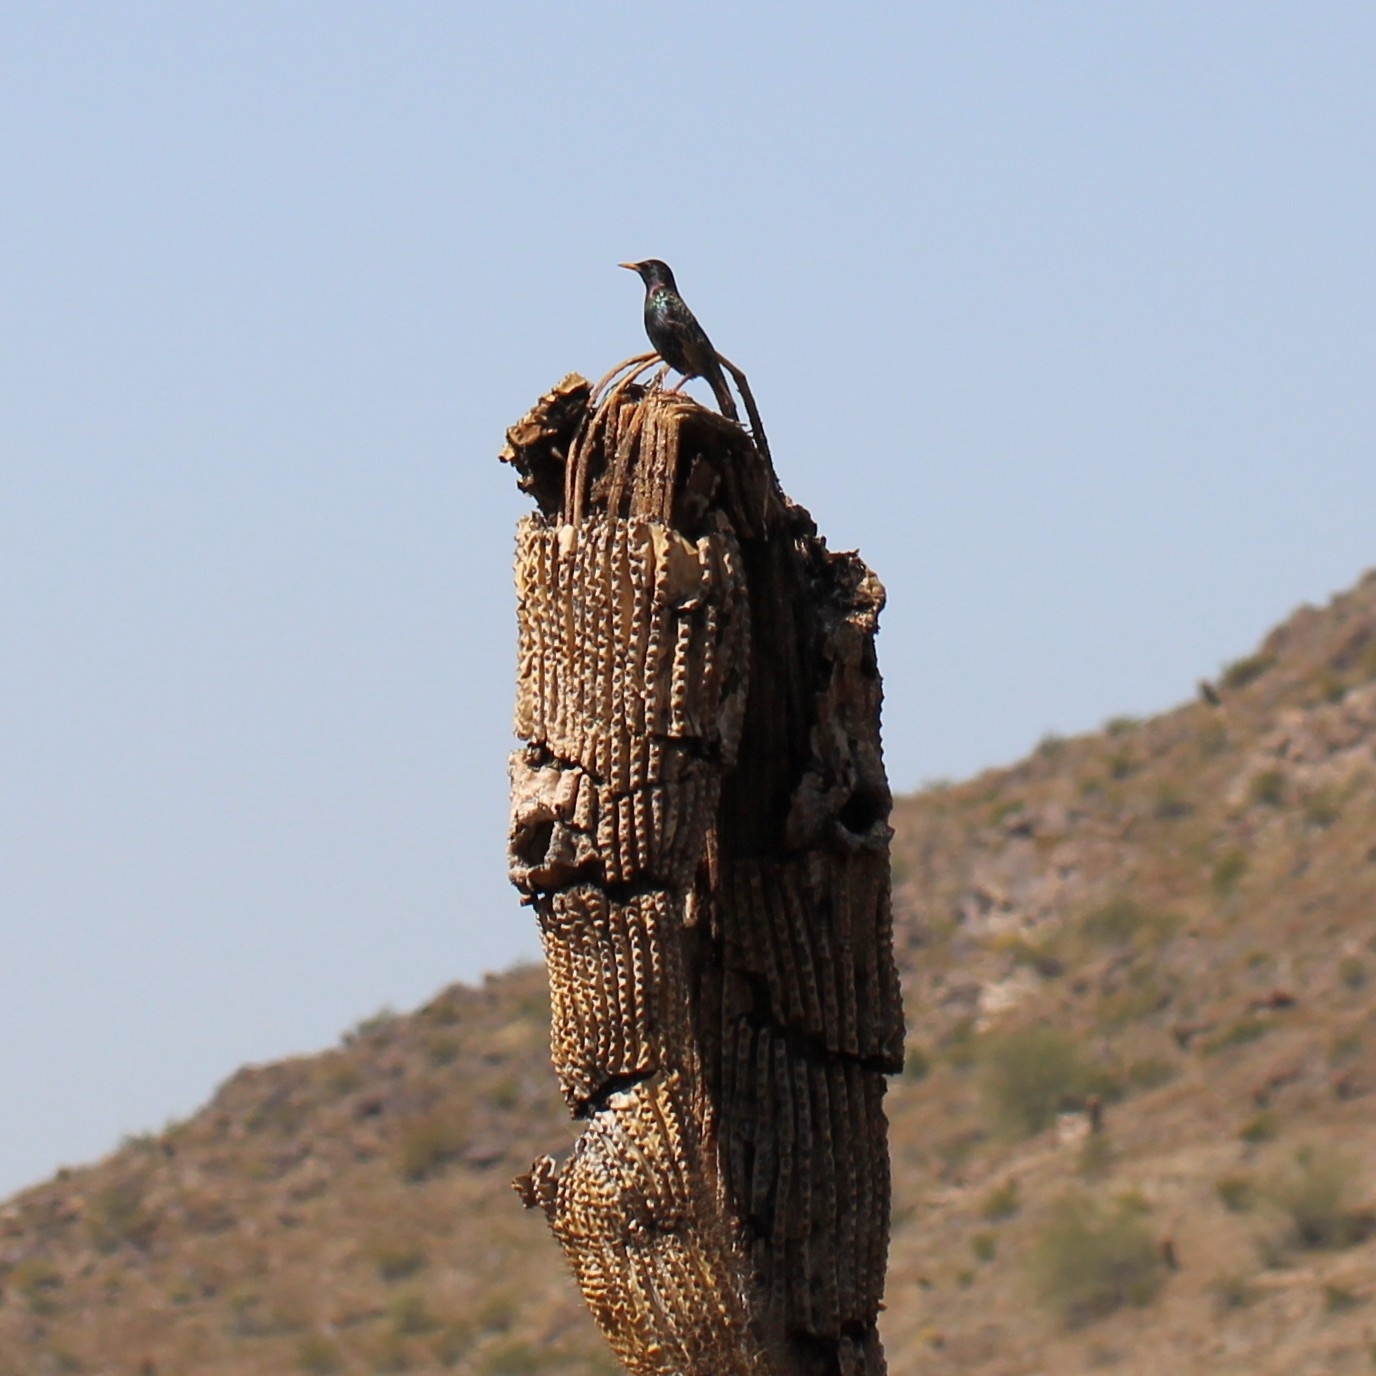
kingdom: Animalia
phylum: Chordata
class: Aves
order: Passeriformes
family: Sturnidae
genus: Sturnus
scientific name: Sturnus vulgaris
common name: Common starling
